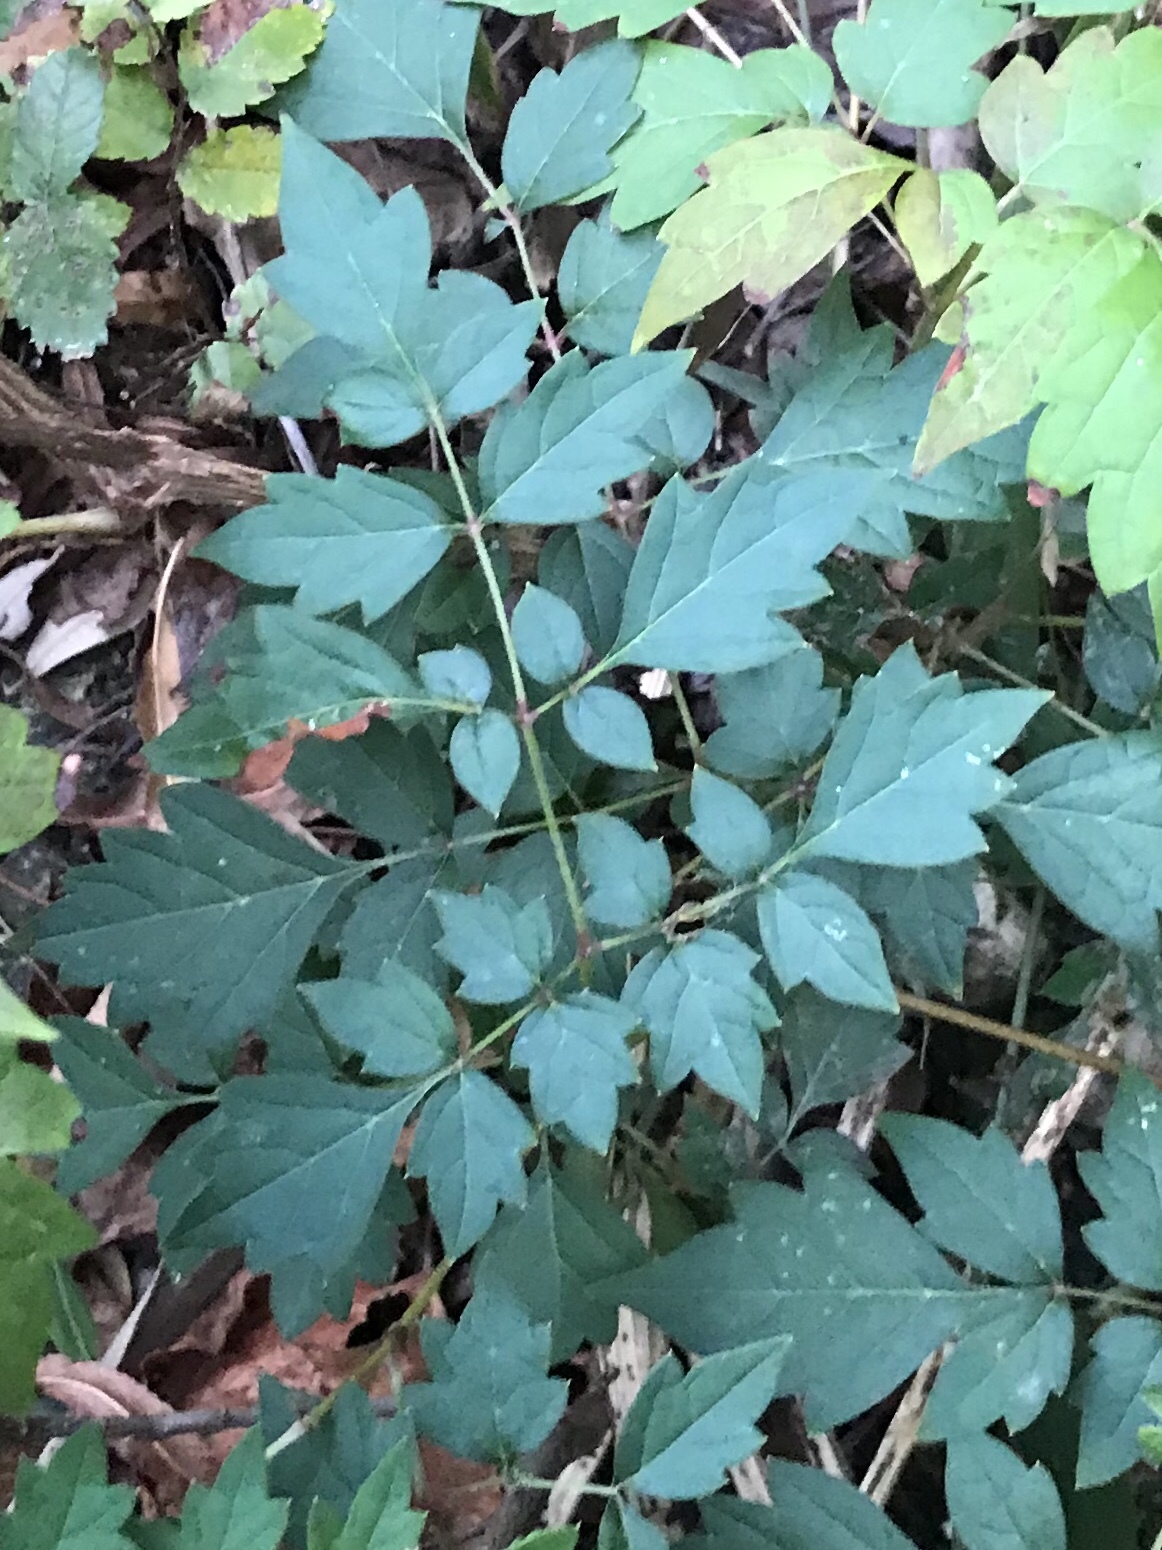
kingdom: Plantae
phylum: Tracheophyta
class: Magnoliopsida
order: Vitales
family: Vitaceae
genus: Nekemias
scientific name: Nekemias arborea
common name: Peppervine
